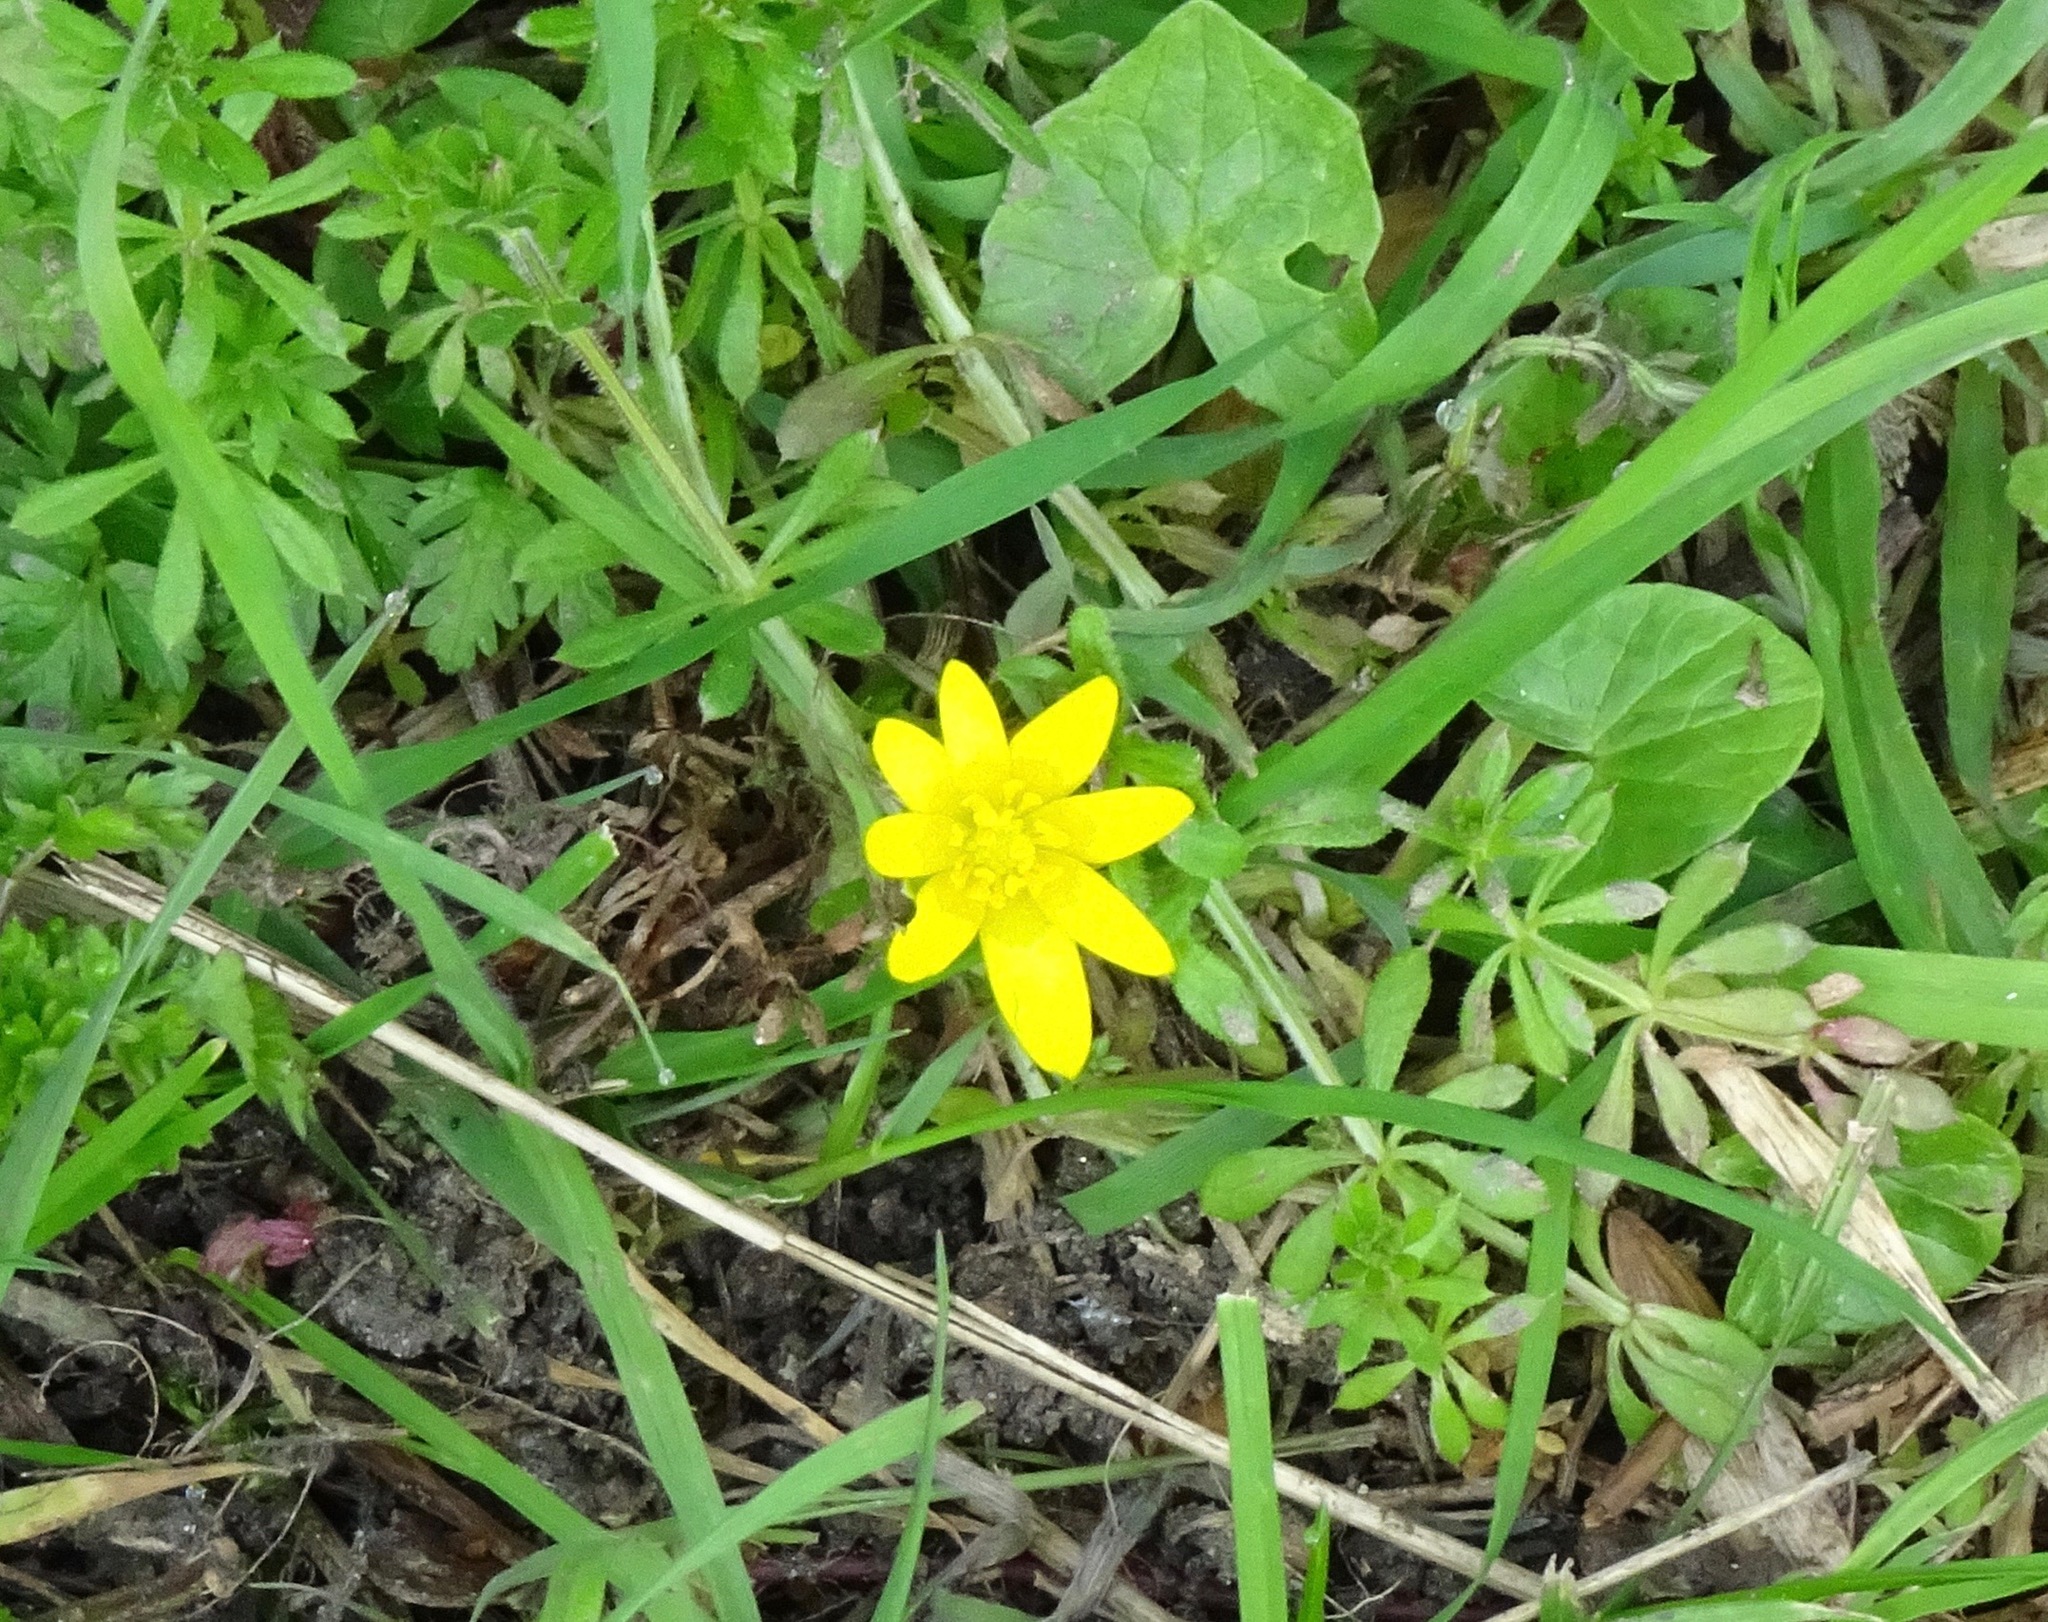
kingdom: Plantae
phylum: Tracheophyta
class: Magnoliopsida
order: Ranunculales
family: Ranunculaceae
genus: Ficaria
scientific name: Ficaria verna
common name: Lesser celandine
